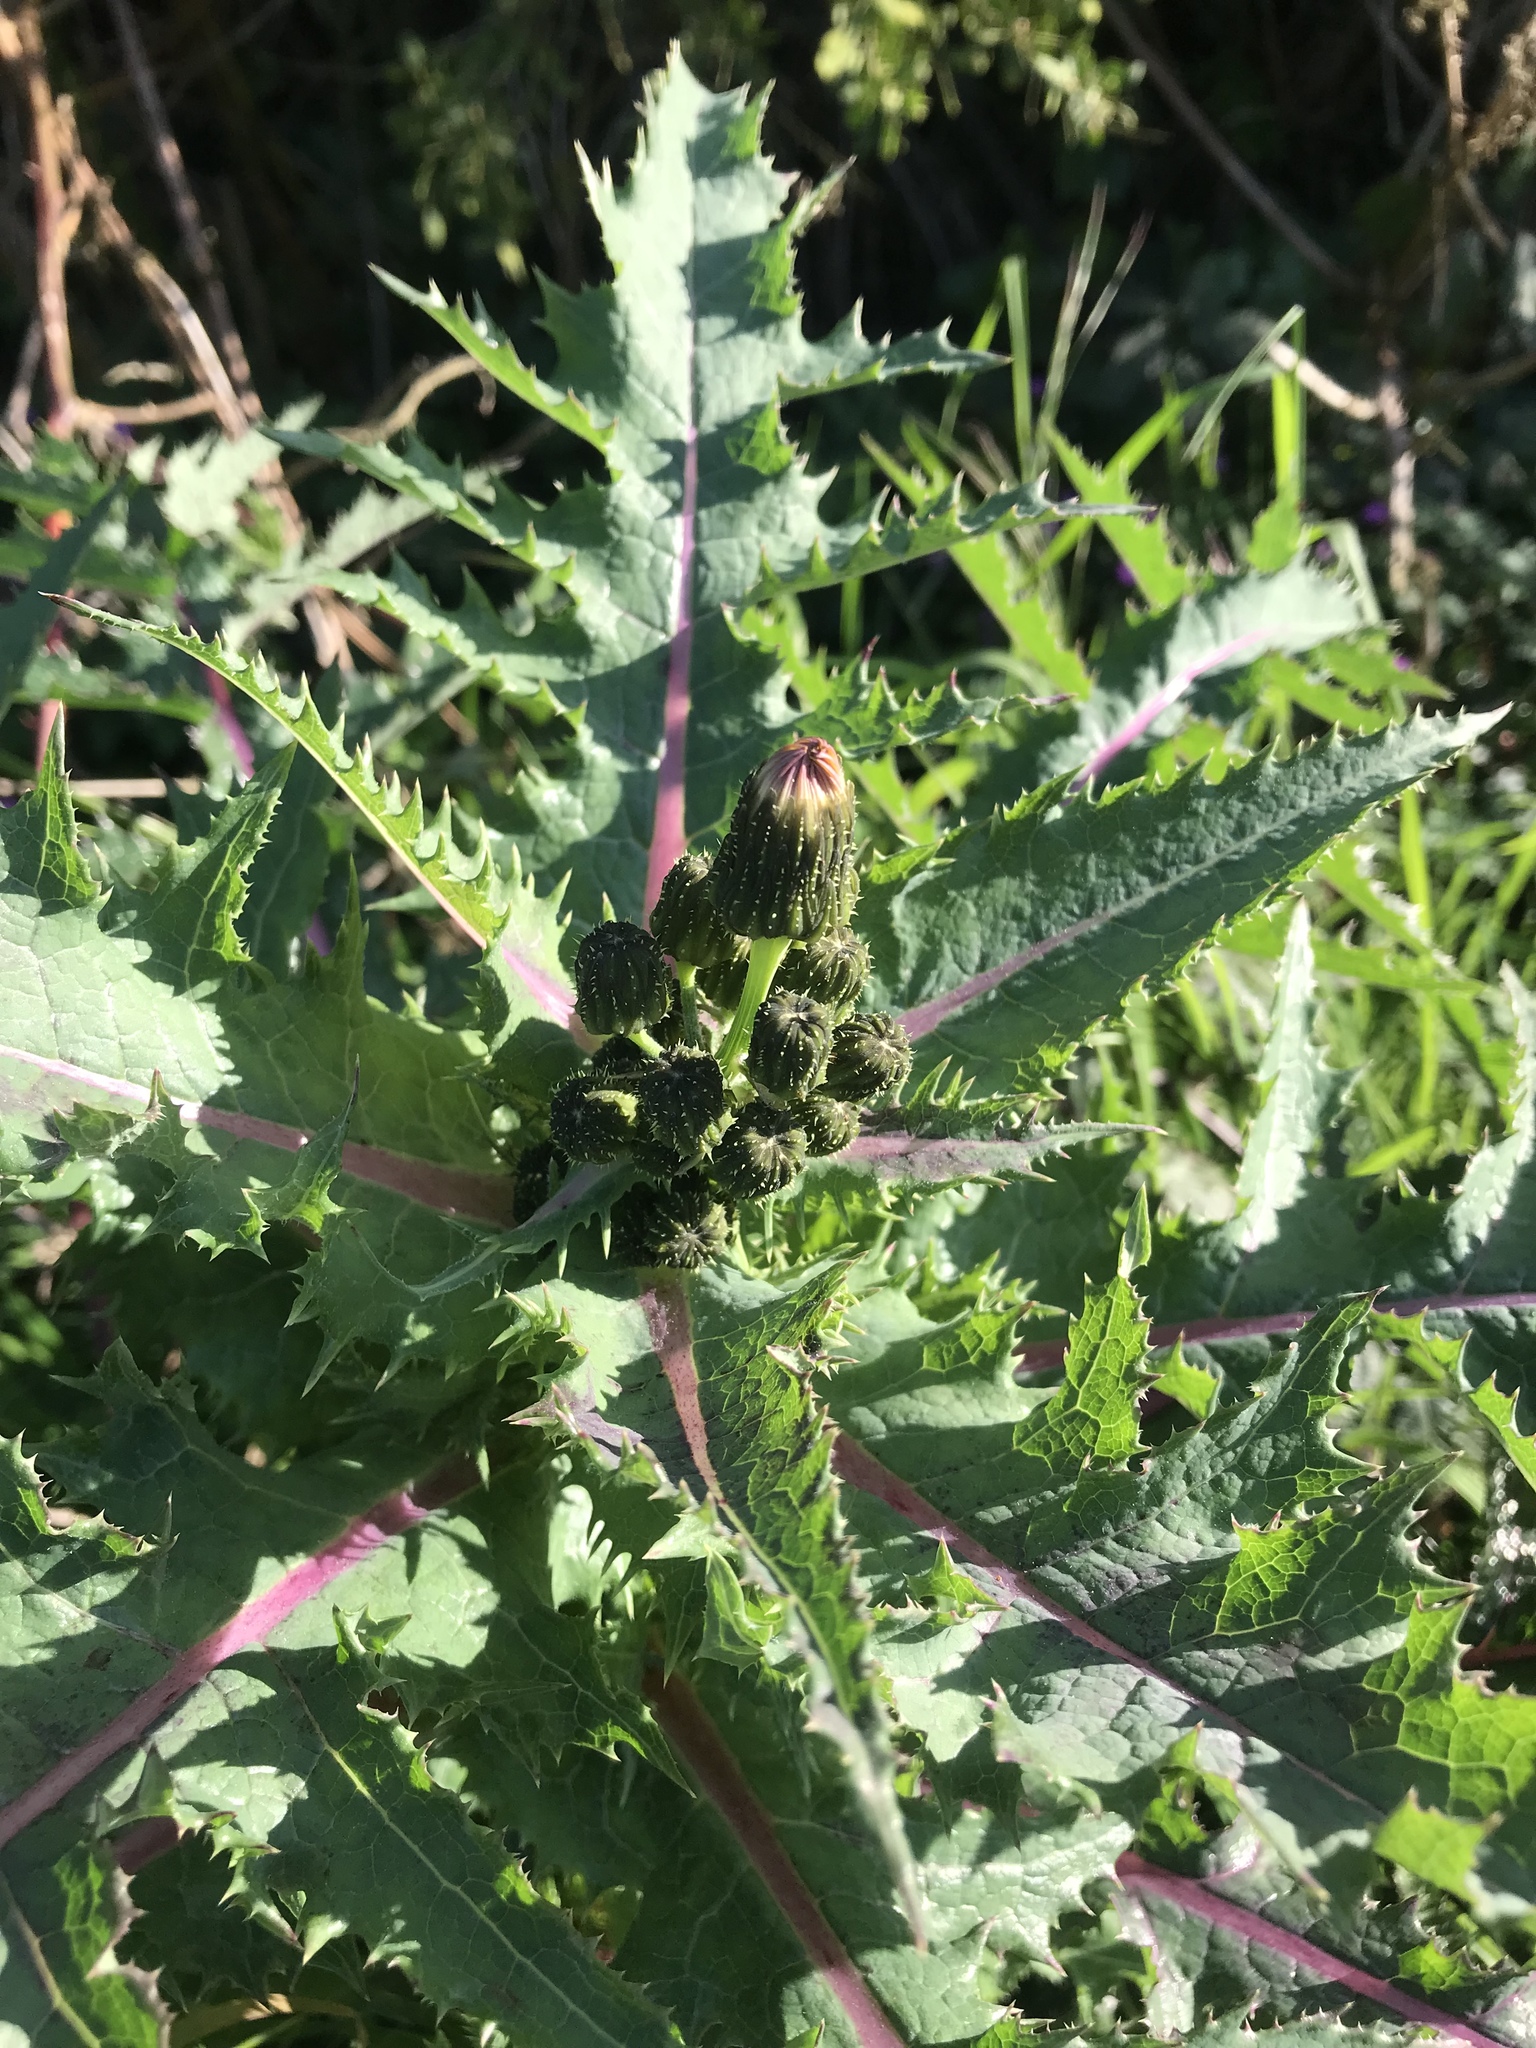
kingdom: Plantae
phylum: Tracheophyta
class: Magnoliopsida
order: Asterales
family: Asteraceae
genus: Sonchus
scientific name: Sonchus oleraceus
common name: Common sowthistle
